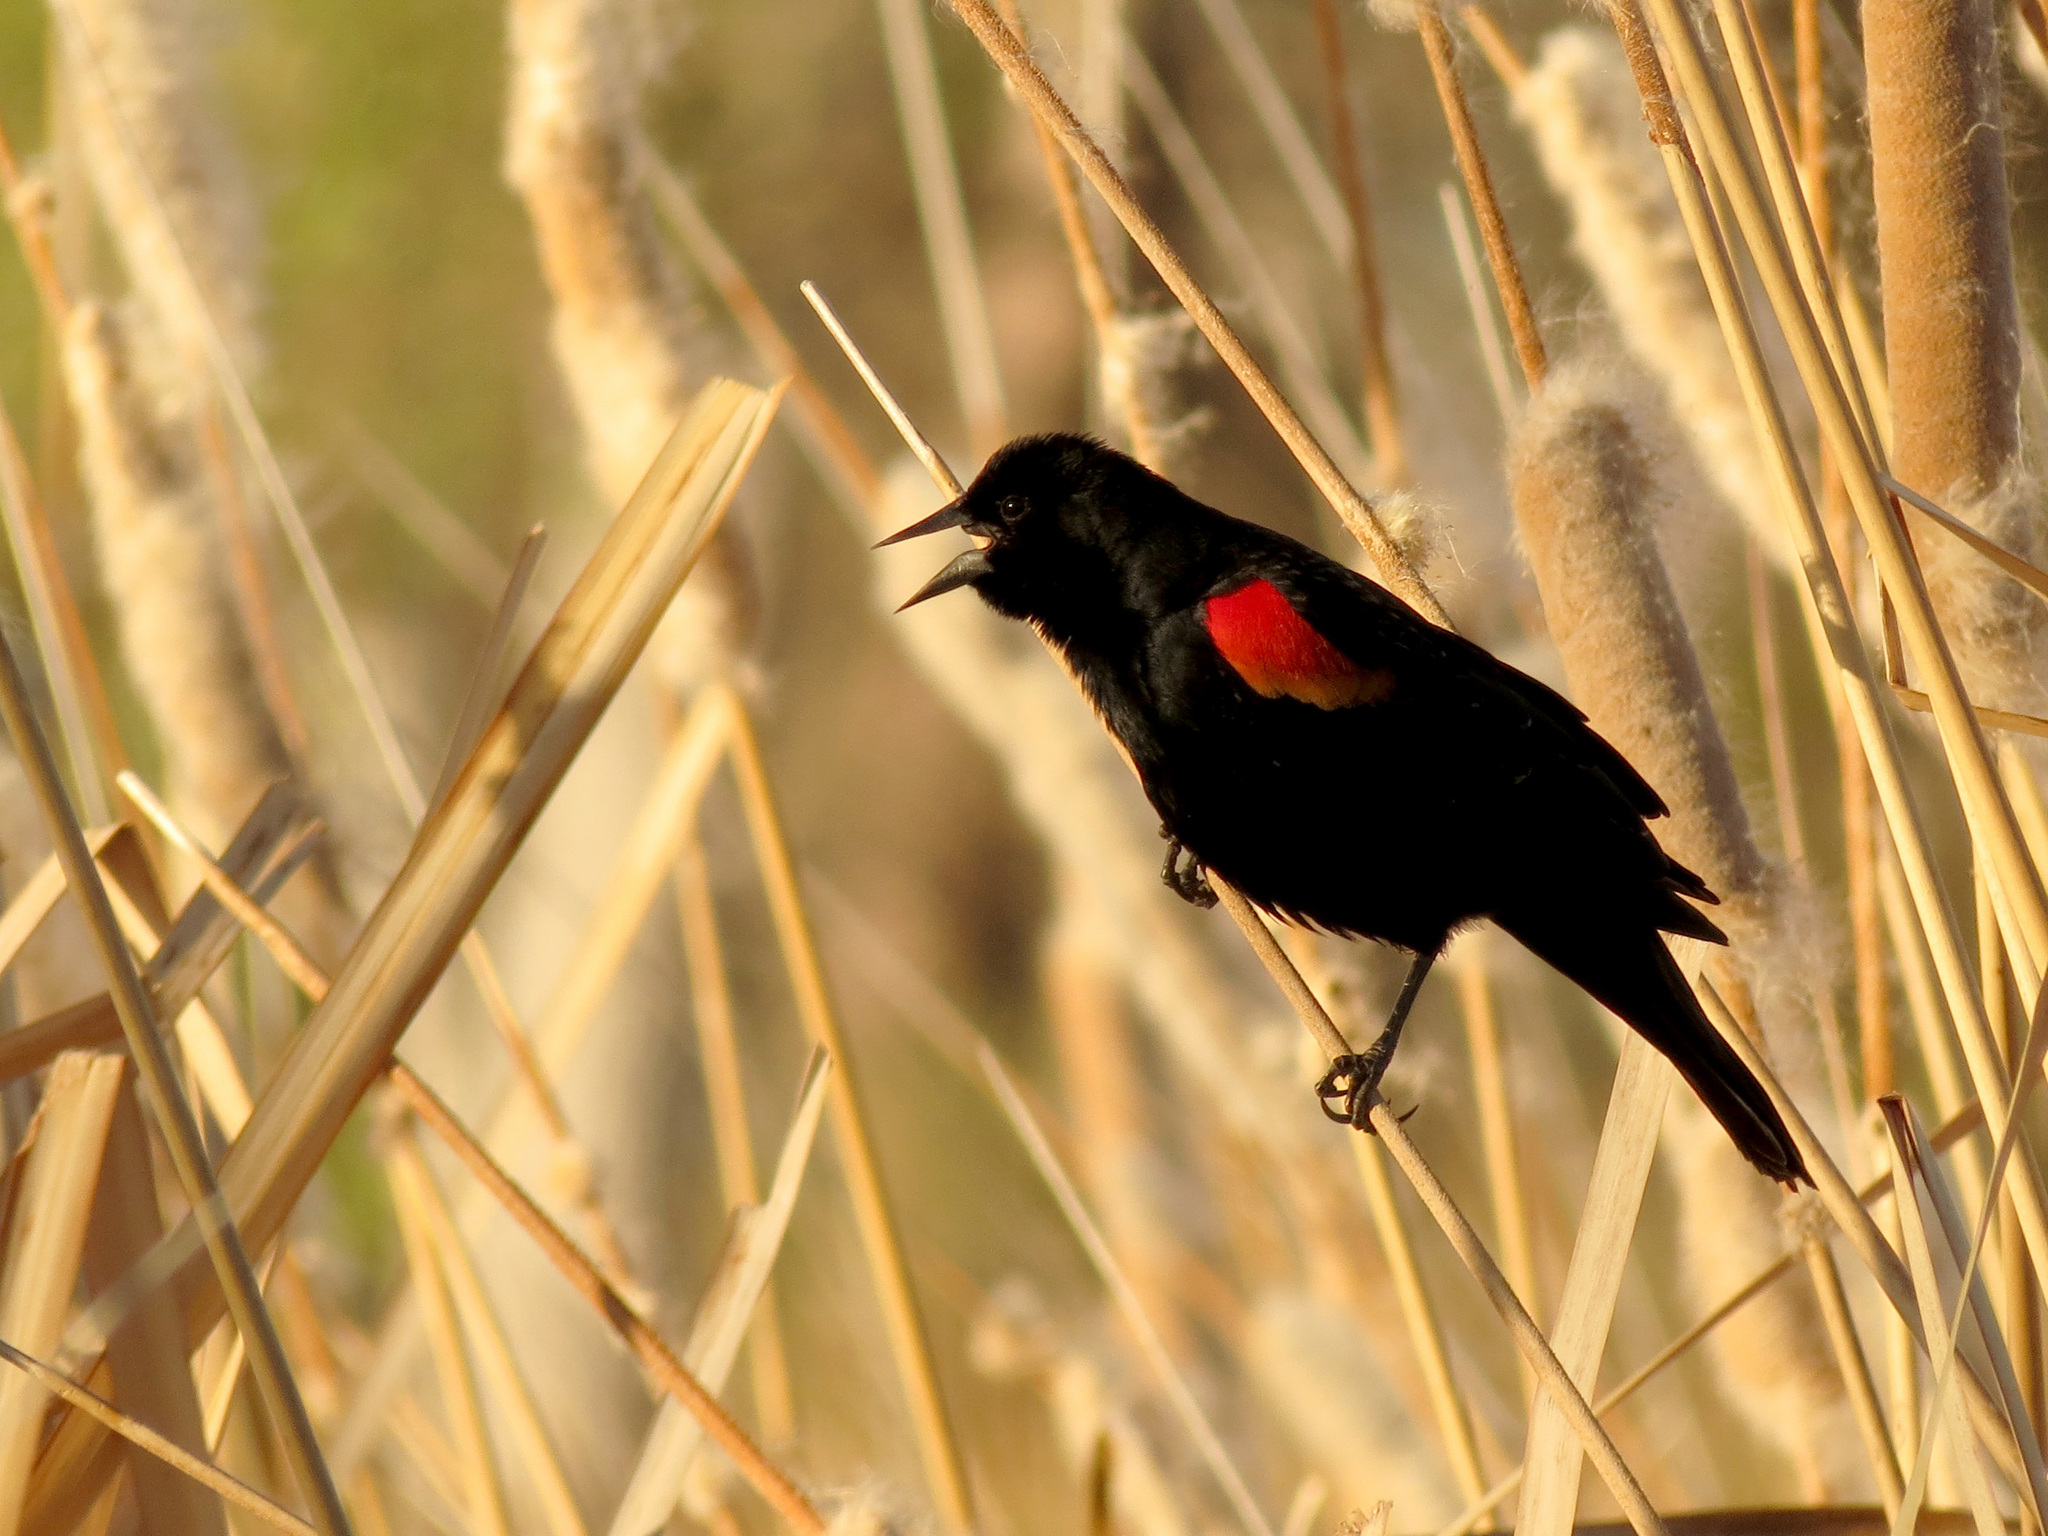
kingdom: Animalia
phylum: Chordata
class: Aves
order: Passeriformes
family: Icteridae
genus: Agelaius
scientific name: Agelaius phoeniceus
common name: Red-winged blackbird
